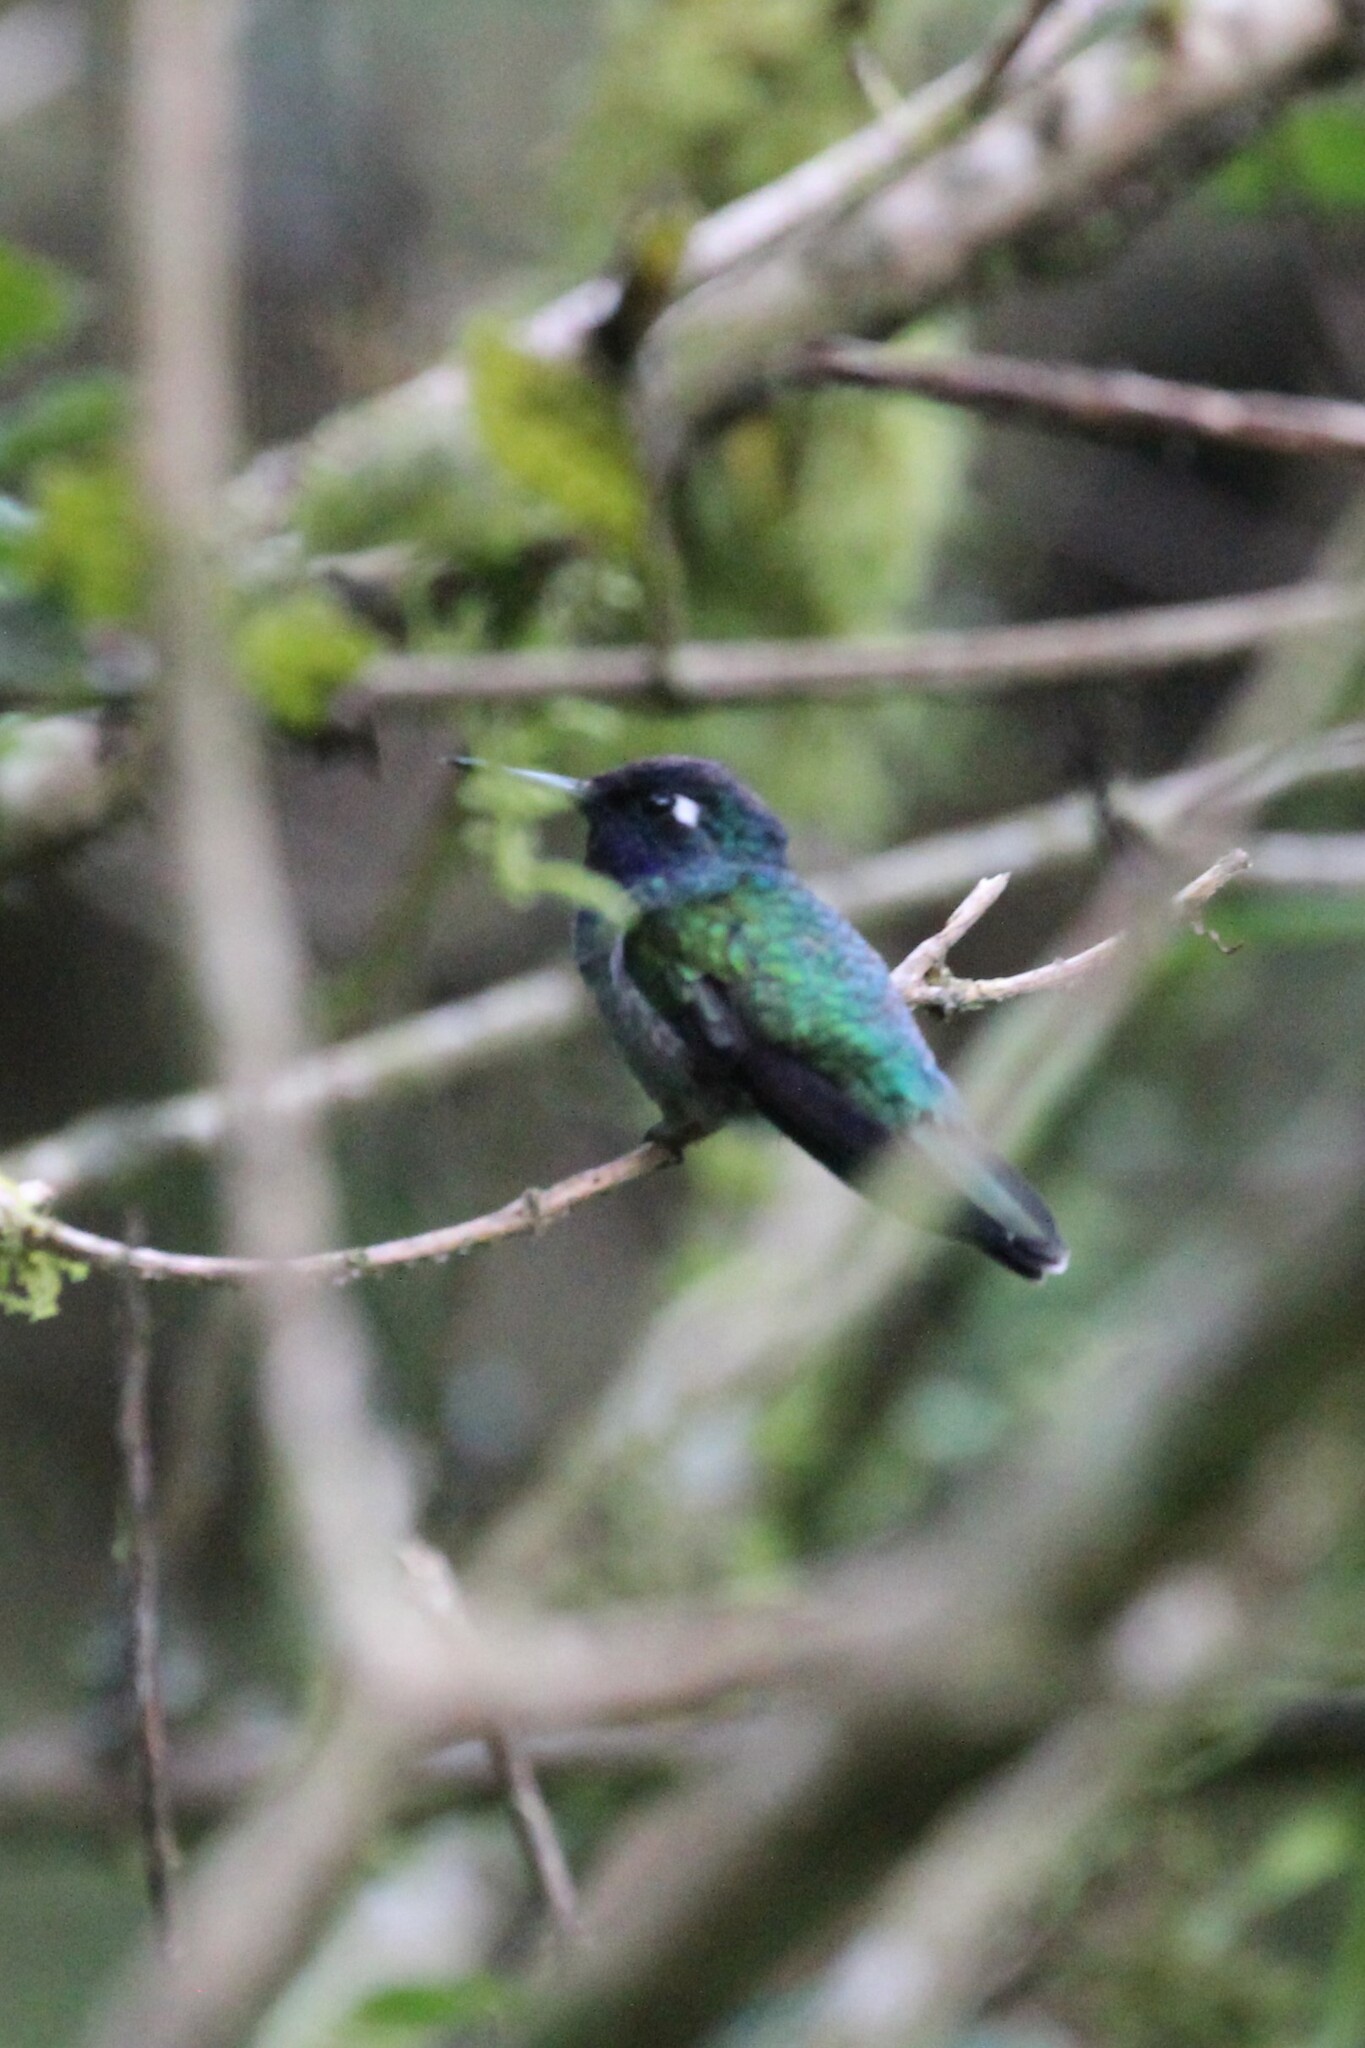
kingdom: Animalia
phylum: Chordata
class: Aves
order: Apodiformes
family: Trochilidae
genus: Klais
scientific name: Klais guimeti
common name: Violet-headed hummingbird
